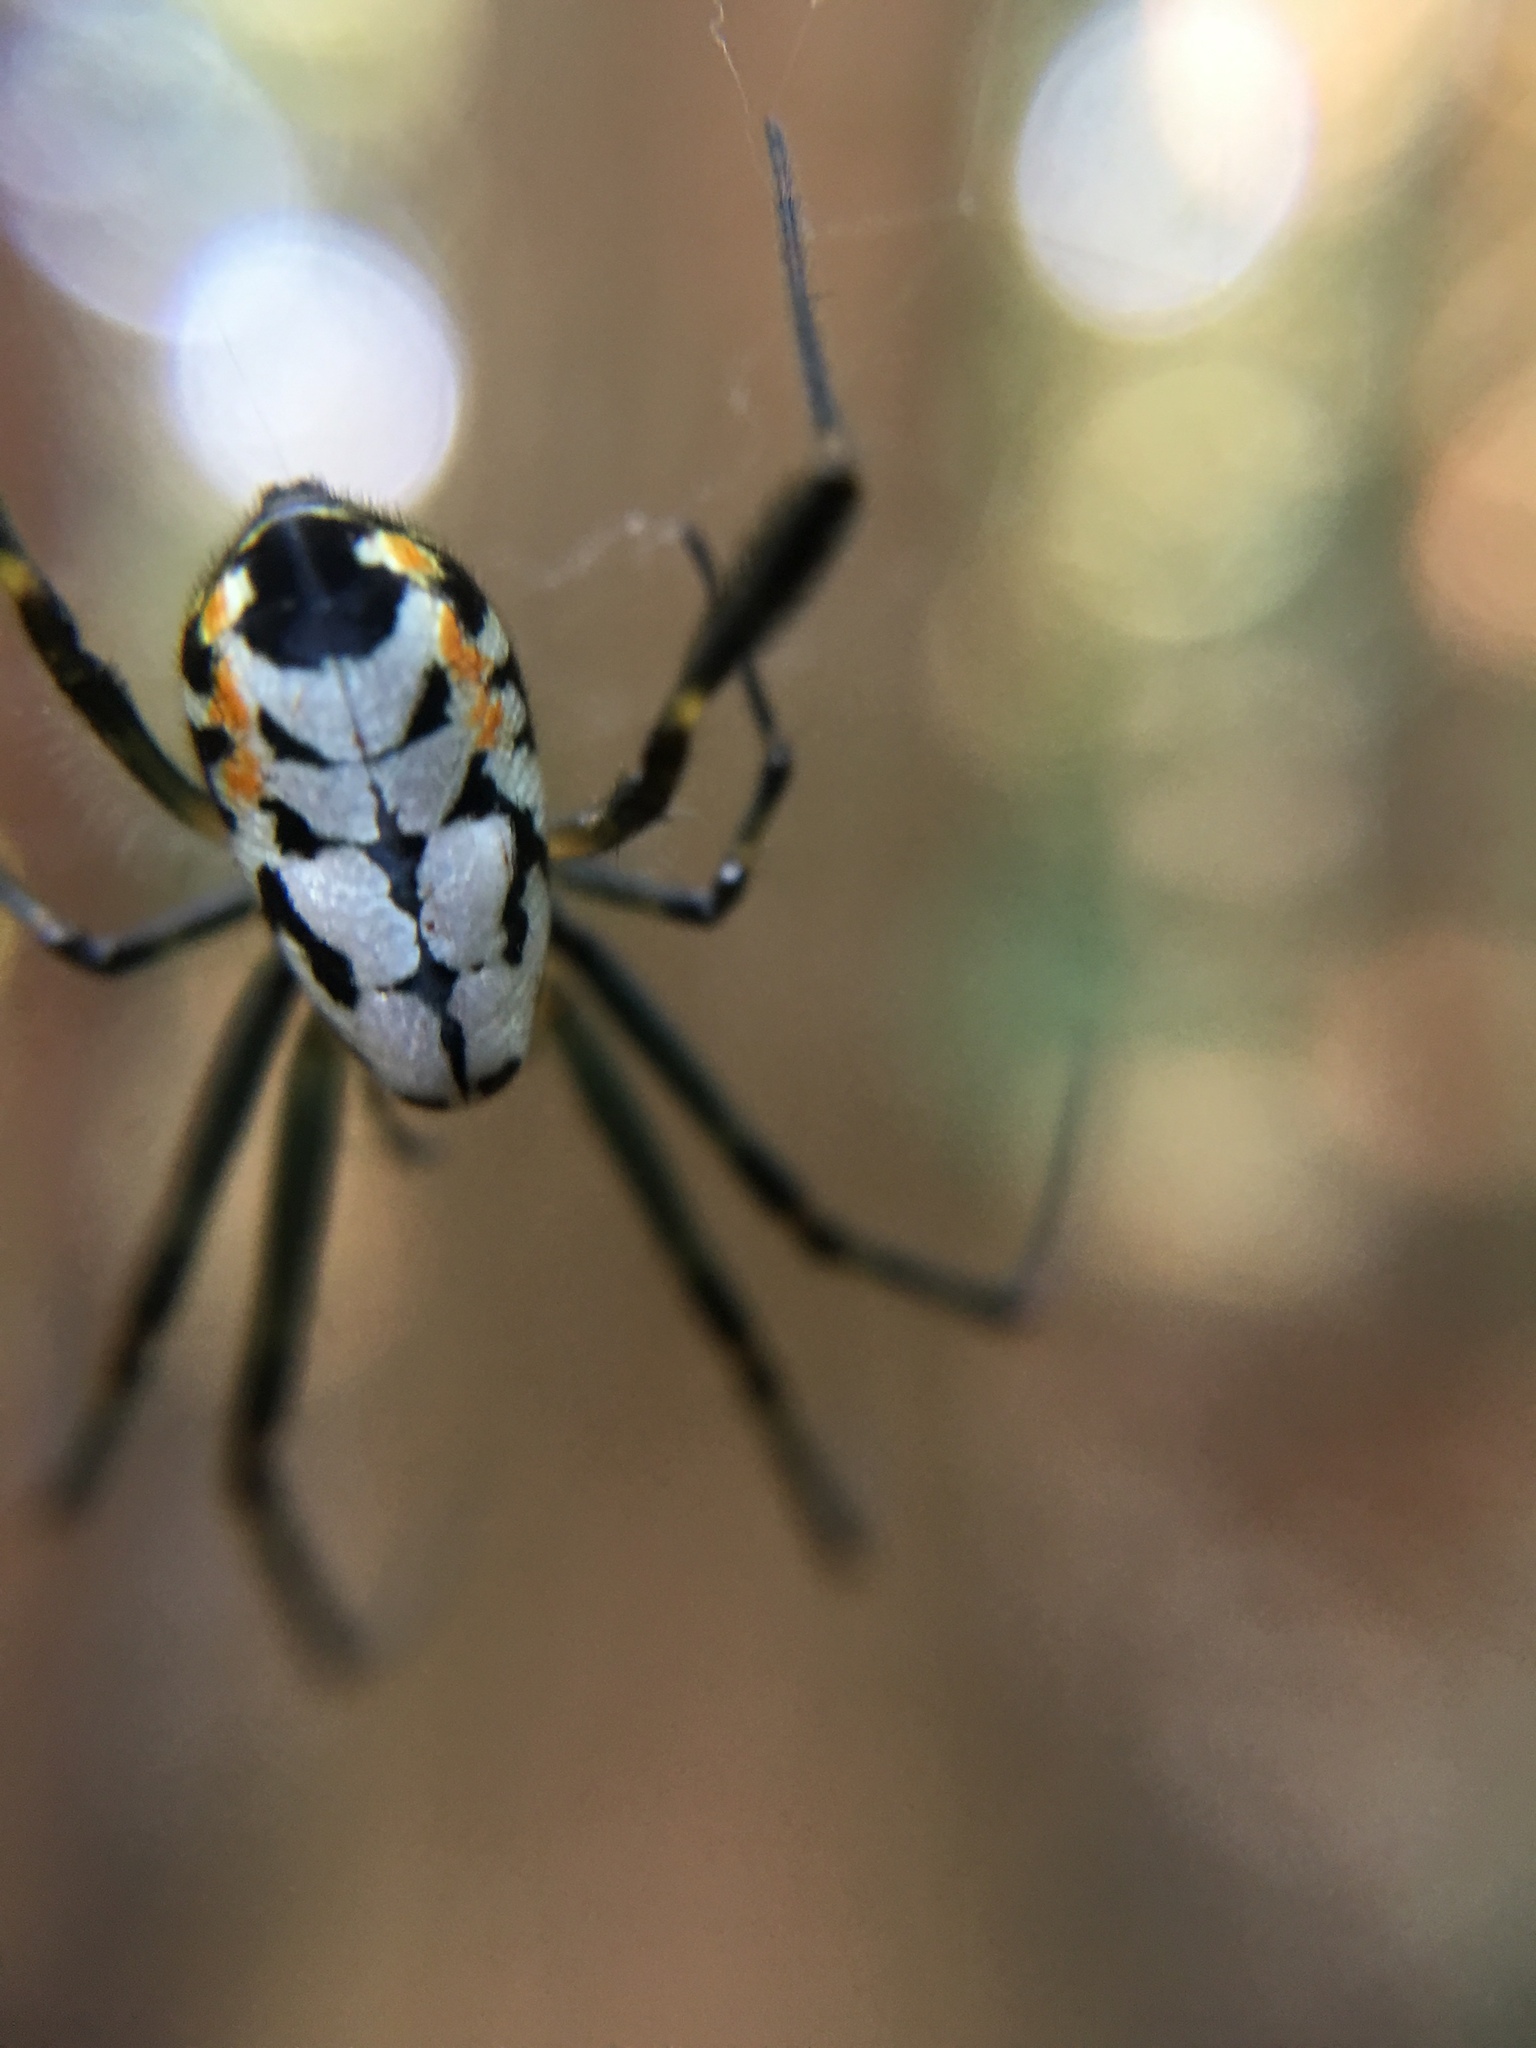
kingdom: Animalia
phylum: Arthropoda
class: Arachnida
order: Araneae
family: Tetragnathidae
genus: Leucauge
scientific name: Leucauge fastigata
